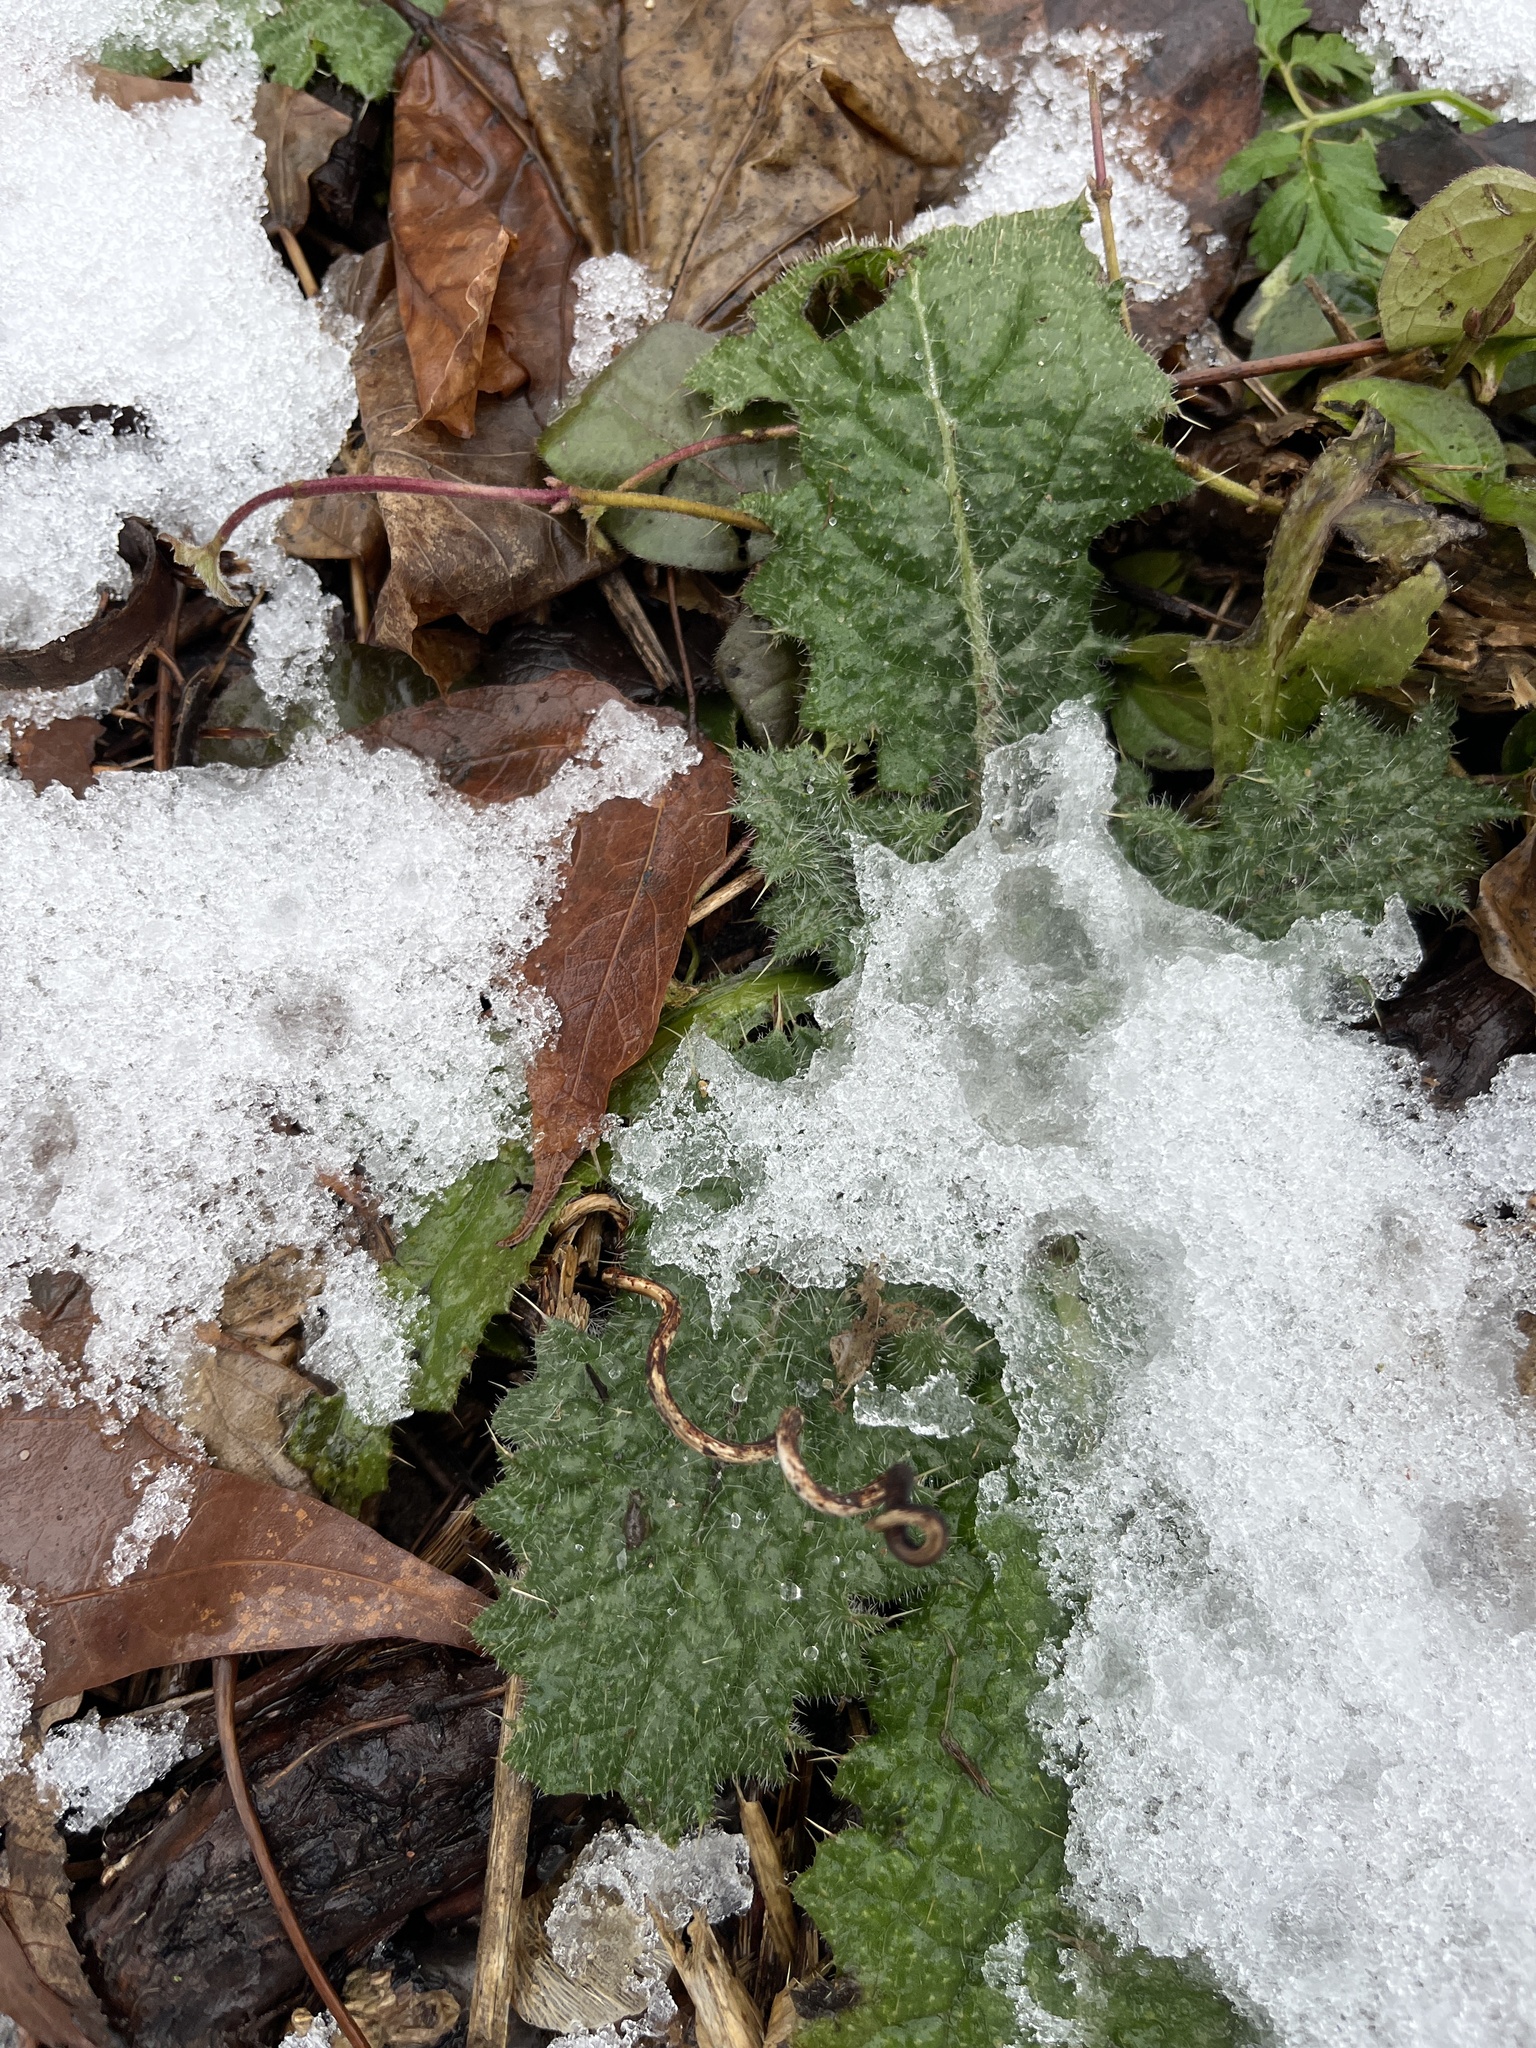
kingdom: Plantae
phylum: Tracheophyta
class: Magnoliopsida
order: Asterales
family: Asteraceae
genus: Cirsium
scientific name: Cirsium vulgare
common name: Bull thistle
